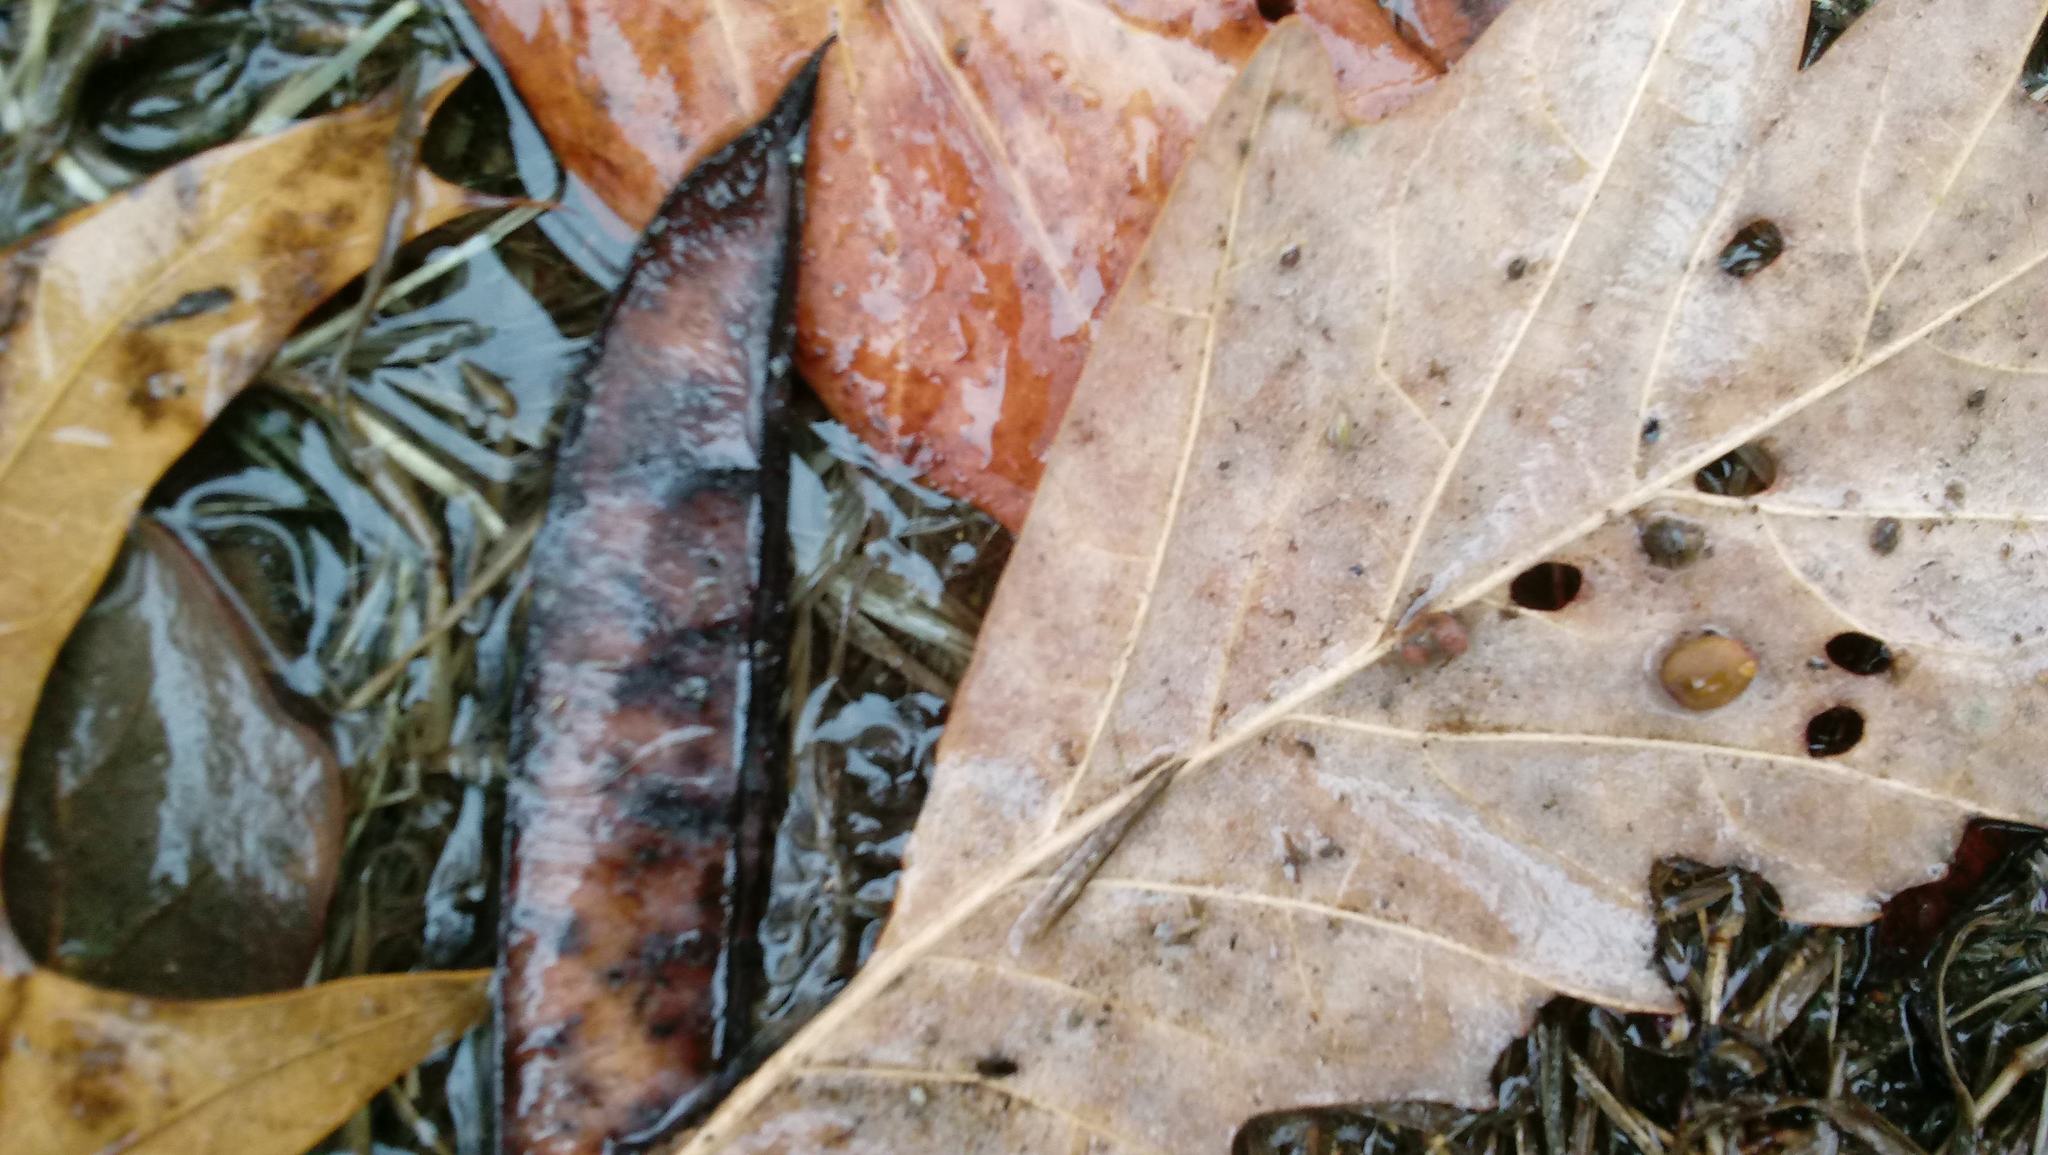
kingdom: Animalia
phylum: Arthropoda
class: Insecta
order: Hymenoptera
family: Cynipidae
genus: Andricus
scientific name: Andricus Druon ignotum
